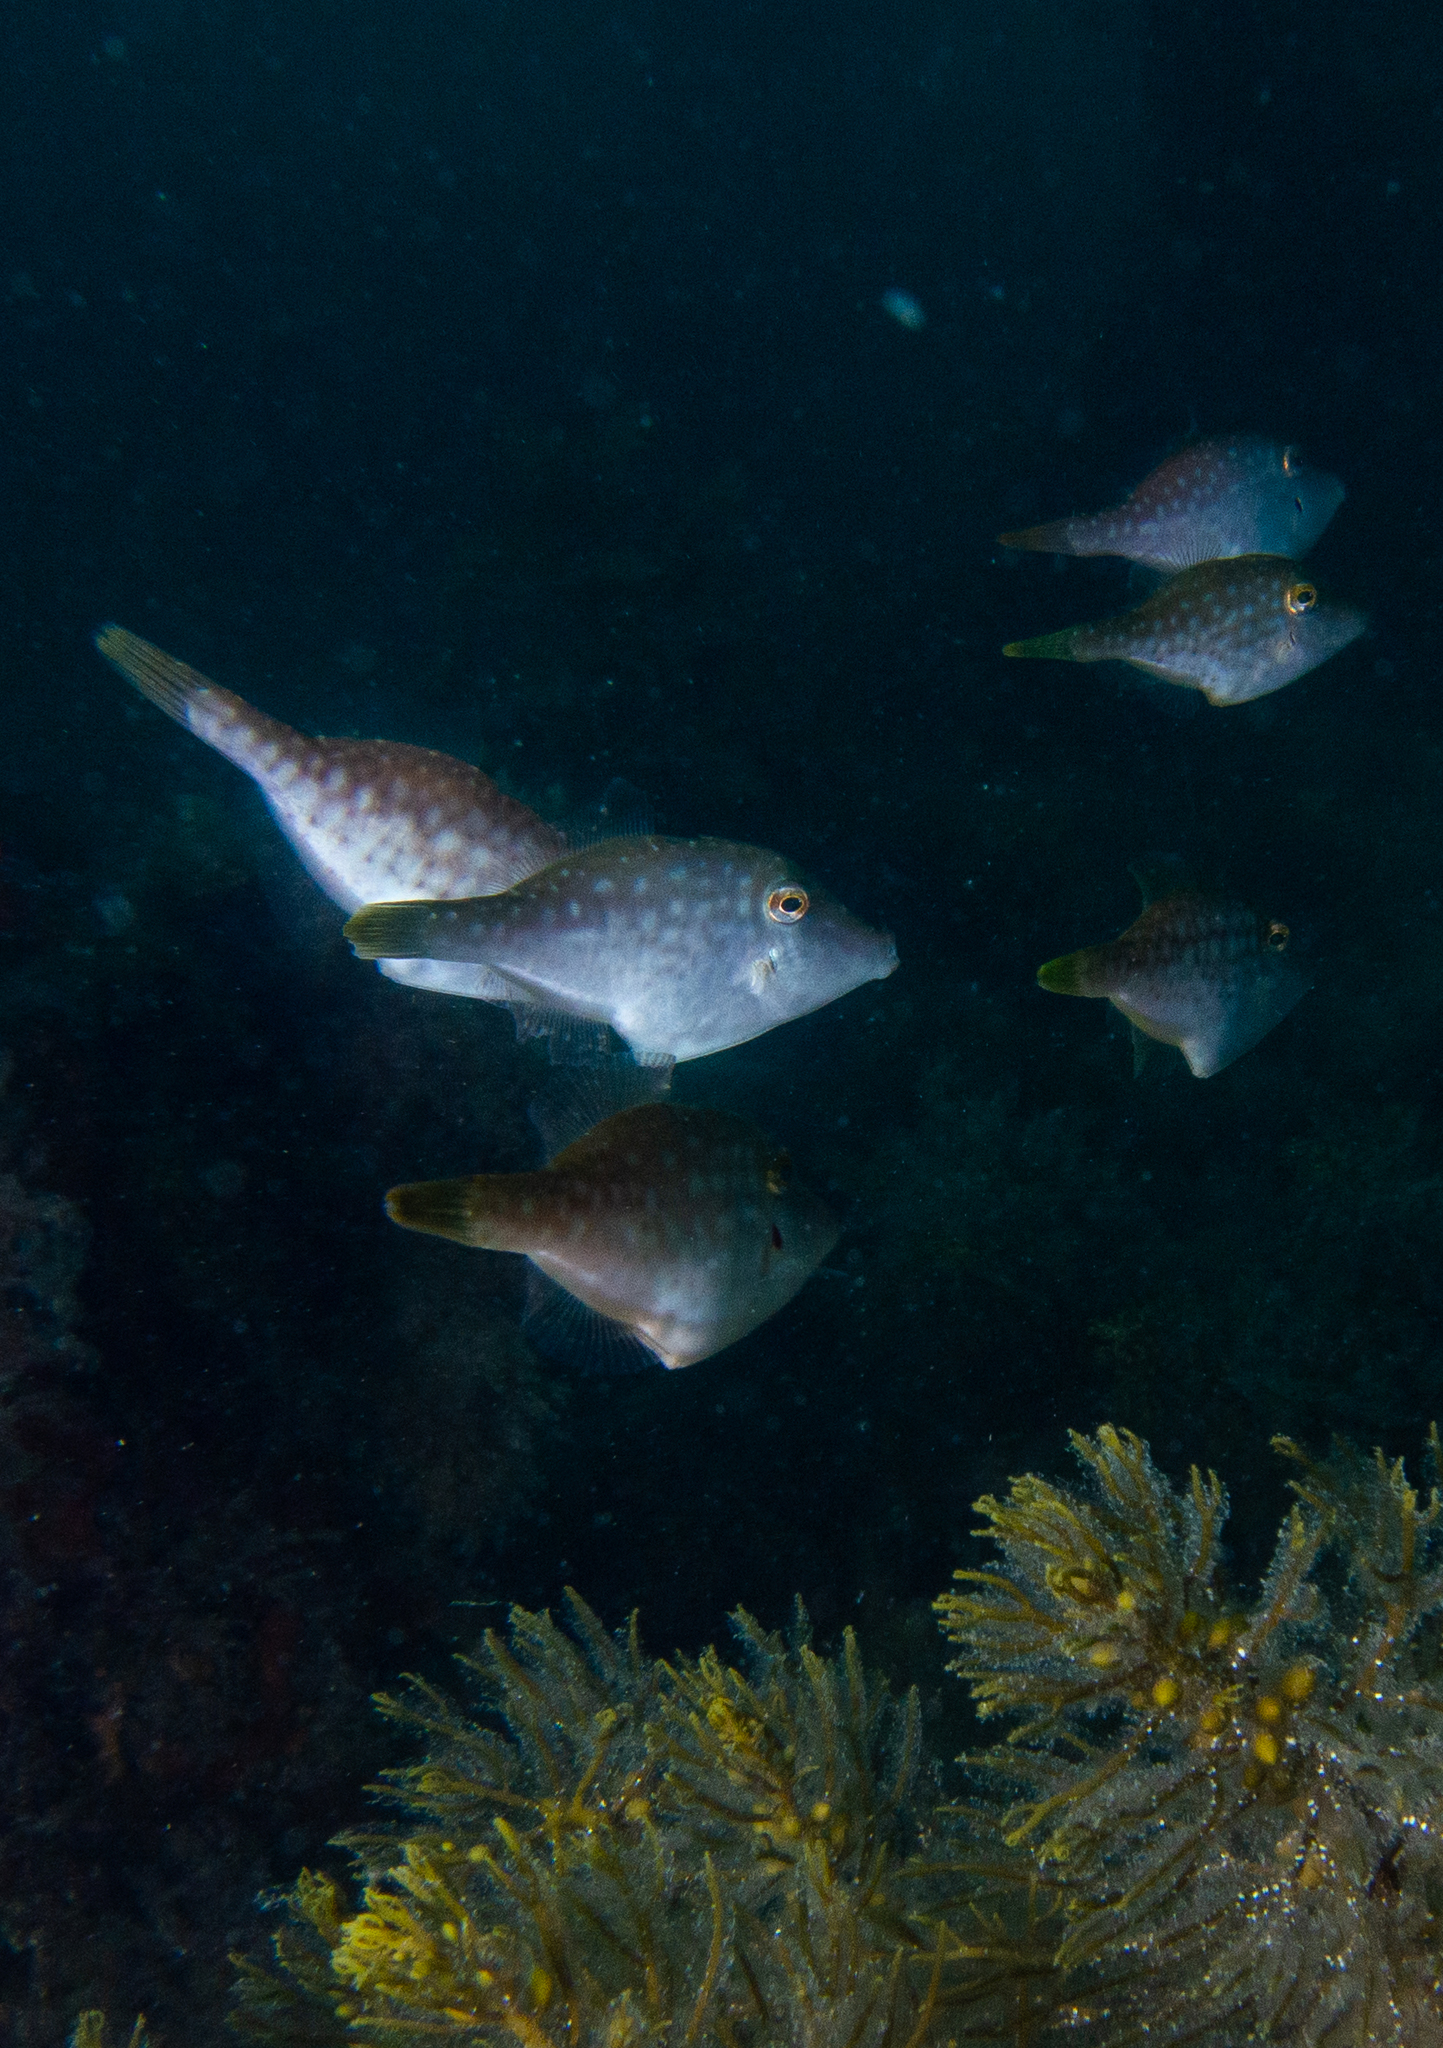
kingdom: Animalia
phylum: Chordata
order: Tetraodontiformes
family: Monacanthidae
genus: Acanthaluteres
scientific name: Acanthaluteres vittiger
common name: Brown leatherjacket
